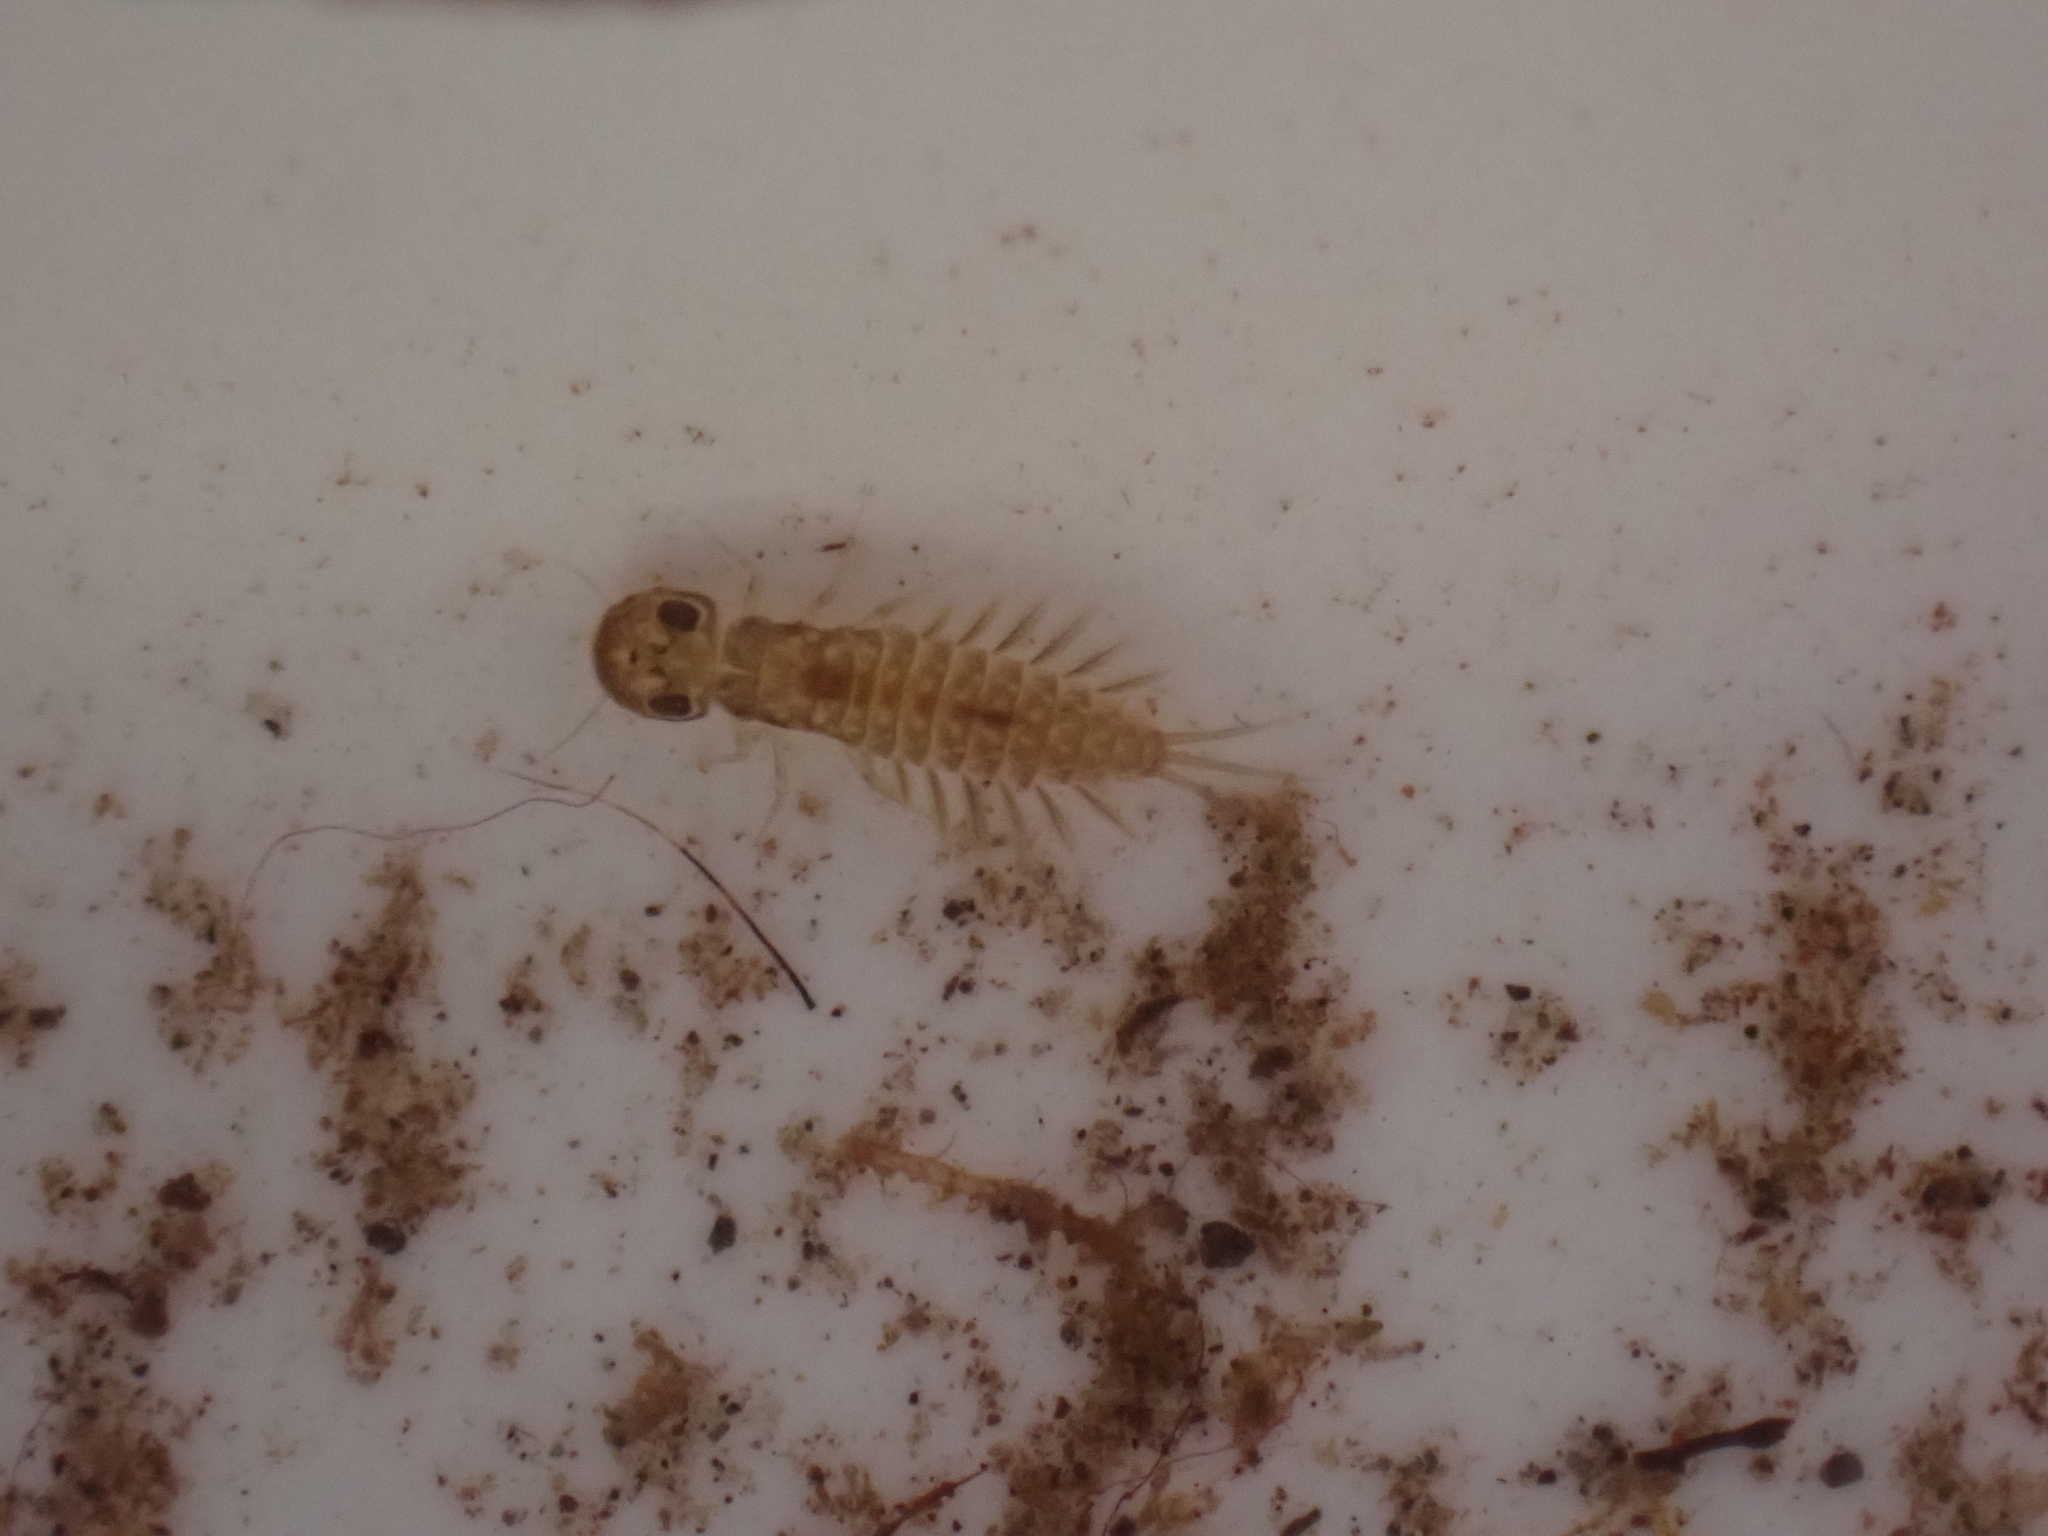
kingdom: Animalia
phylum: Arthropoda
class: Insecta
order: Ephemeroptera
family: Ameletopsidae
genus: Ameletopsis
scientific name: Ameletopsis perscitus
